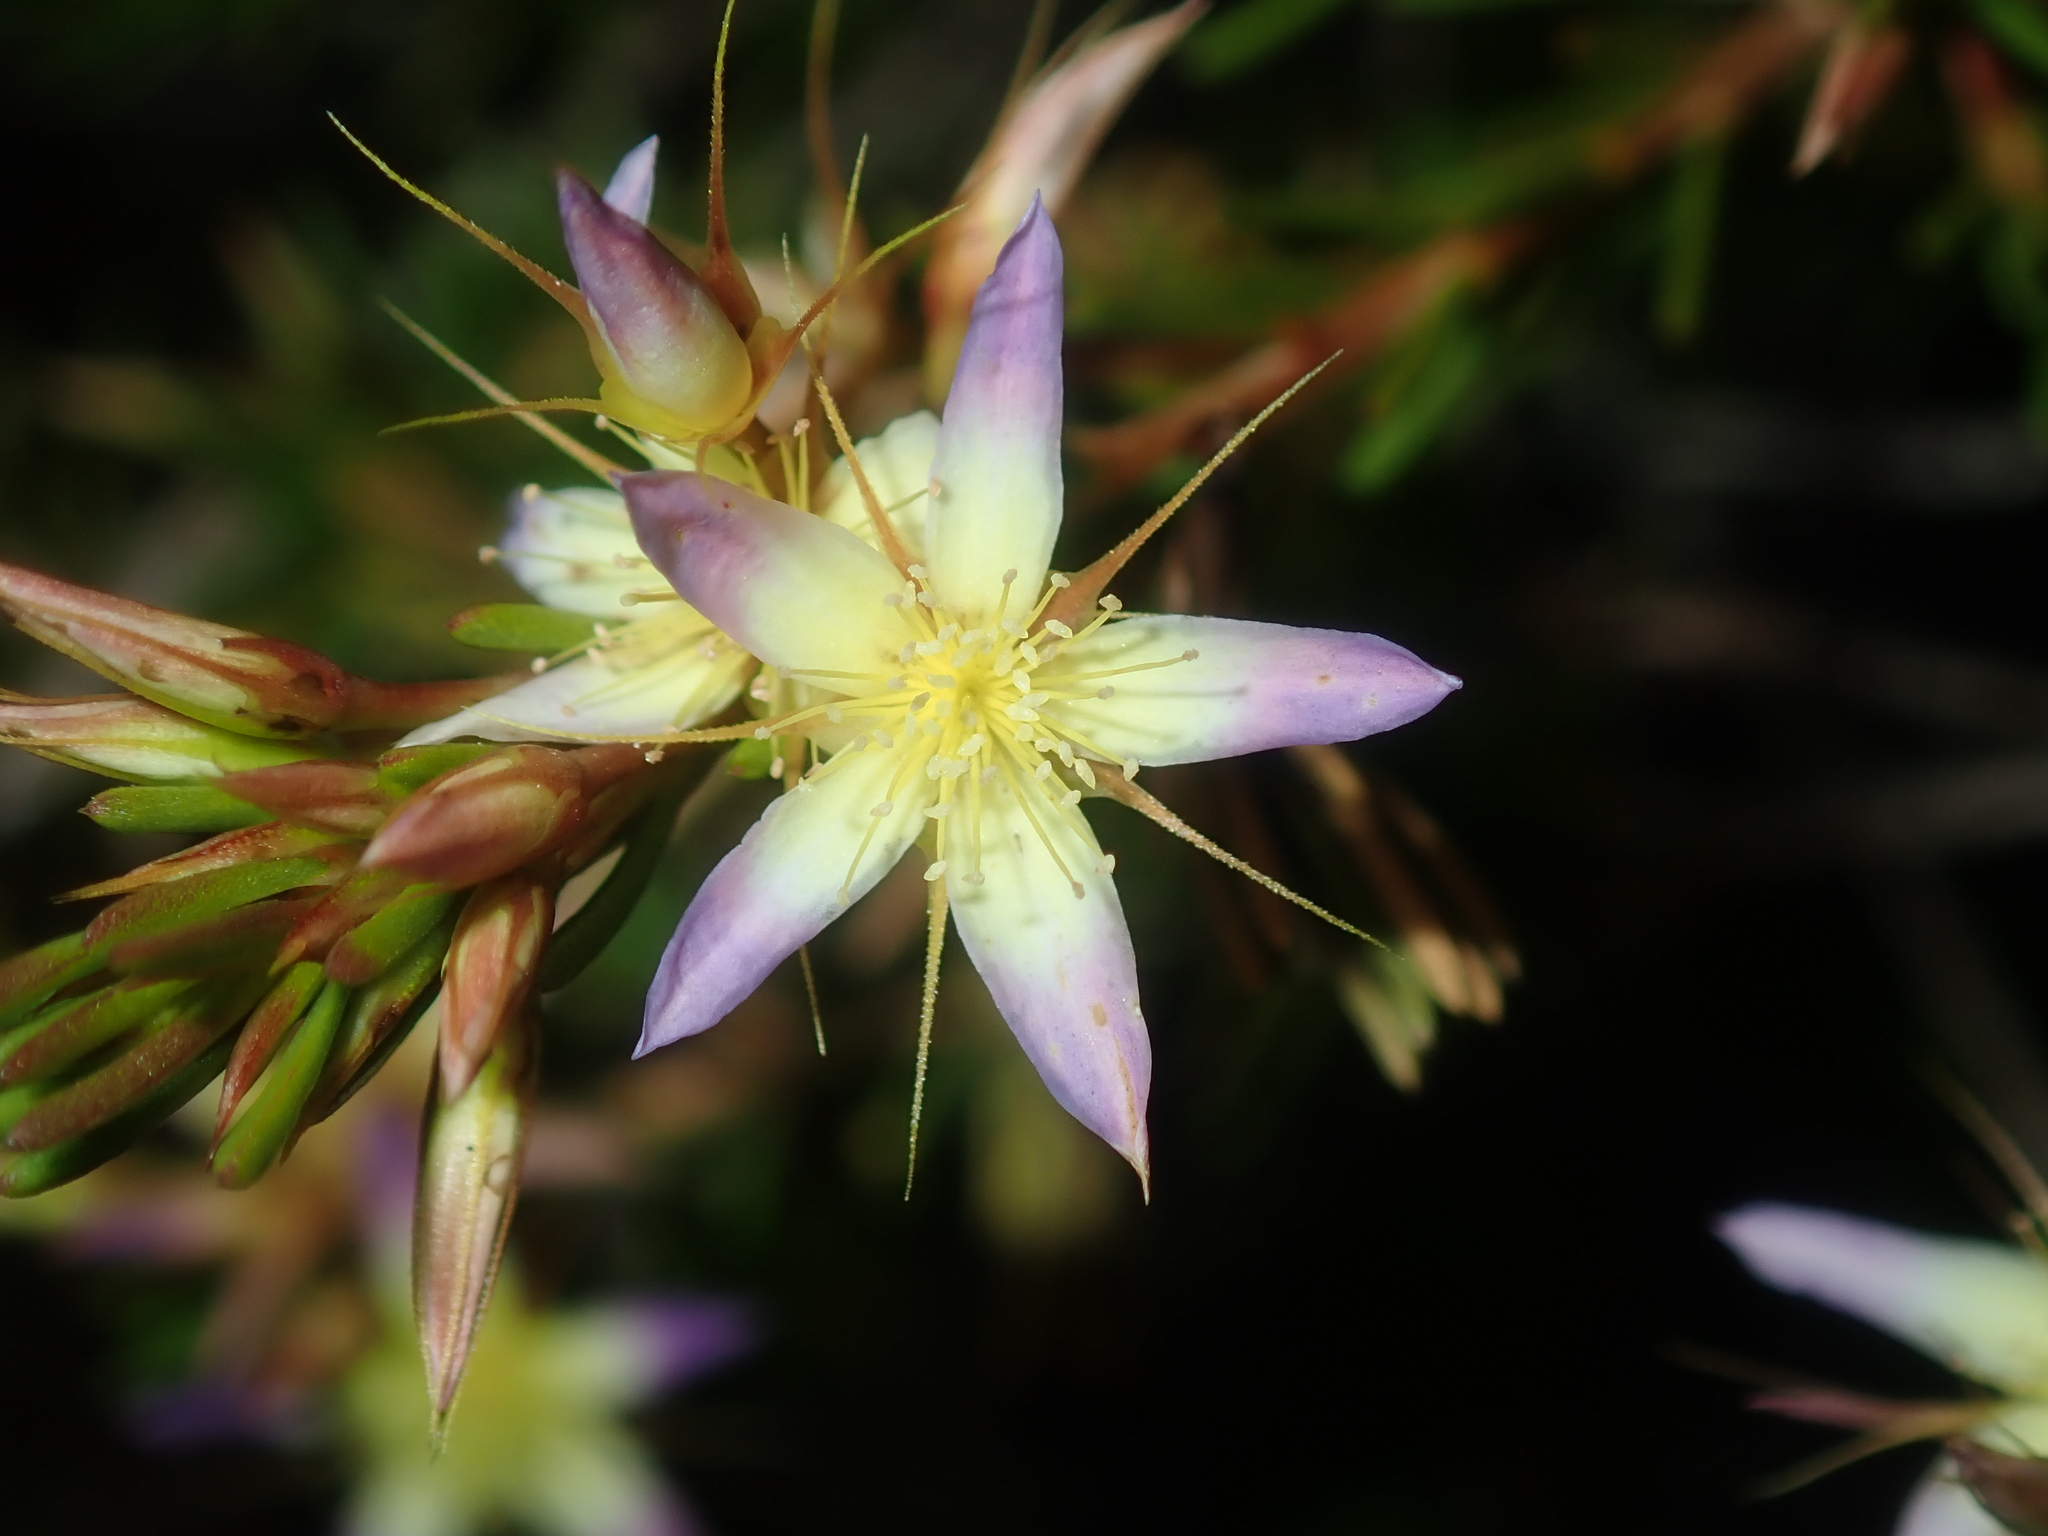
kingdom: Plantae
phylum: Tracheophyta
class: Magnoliopsida
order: Myrtales
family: Myrtaceae
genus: Calytrix
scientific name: Calytrix depressa
